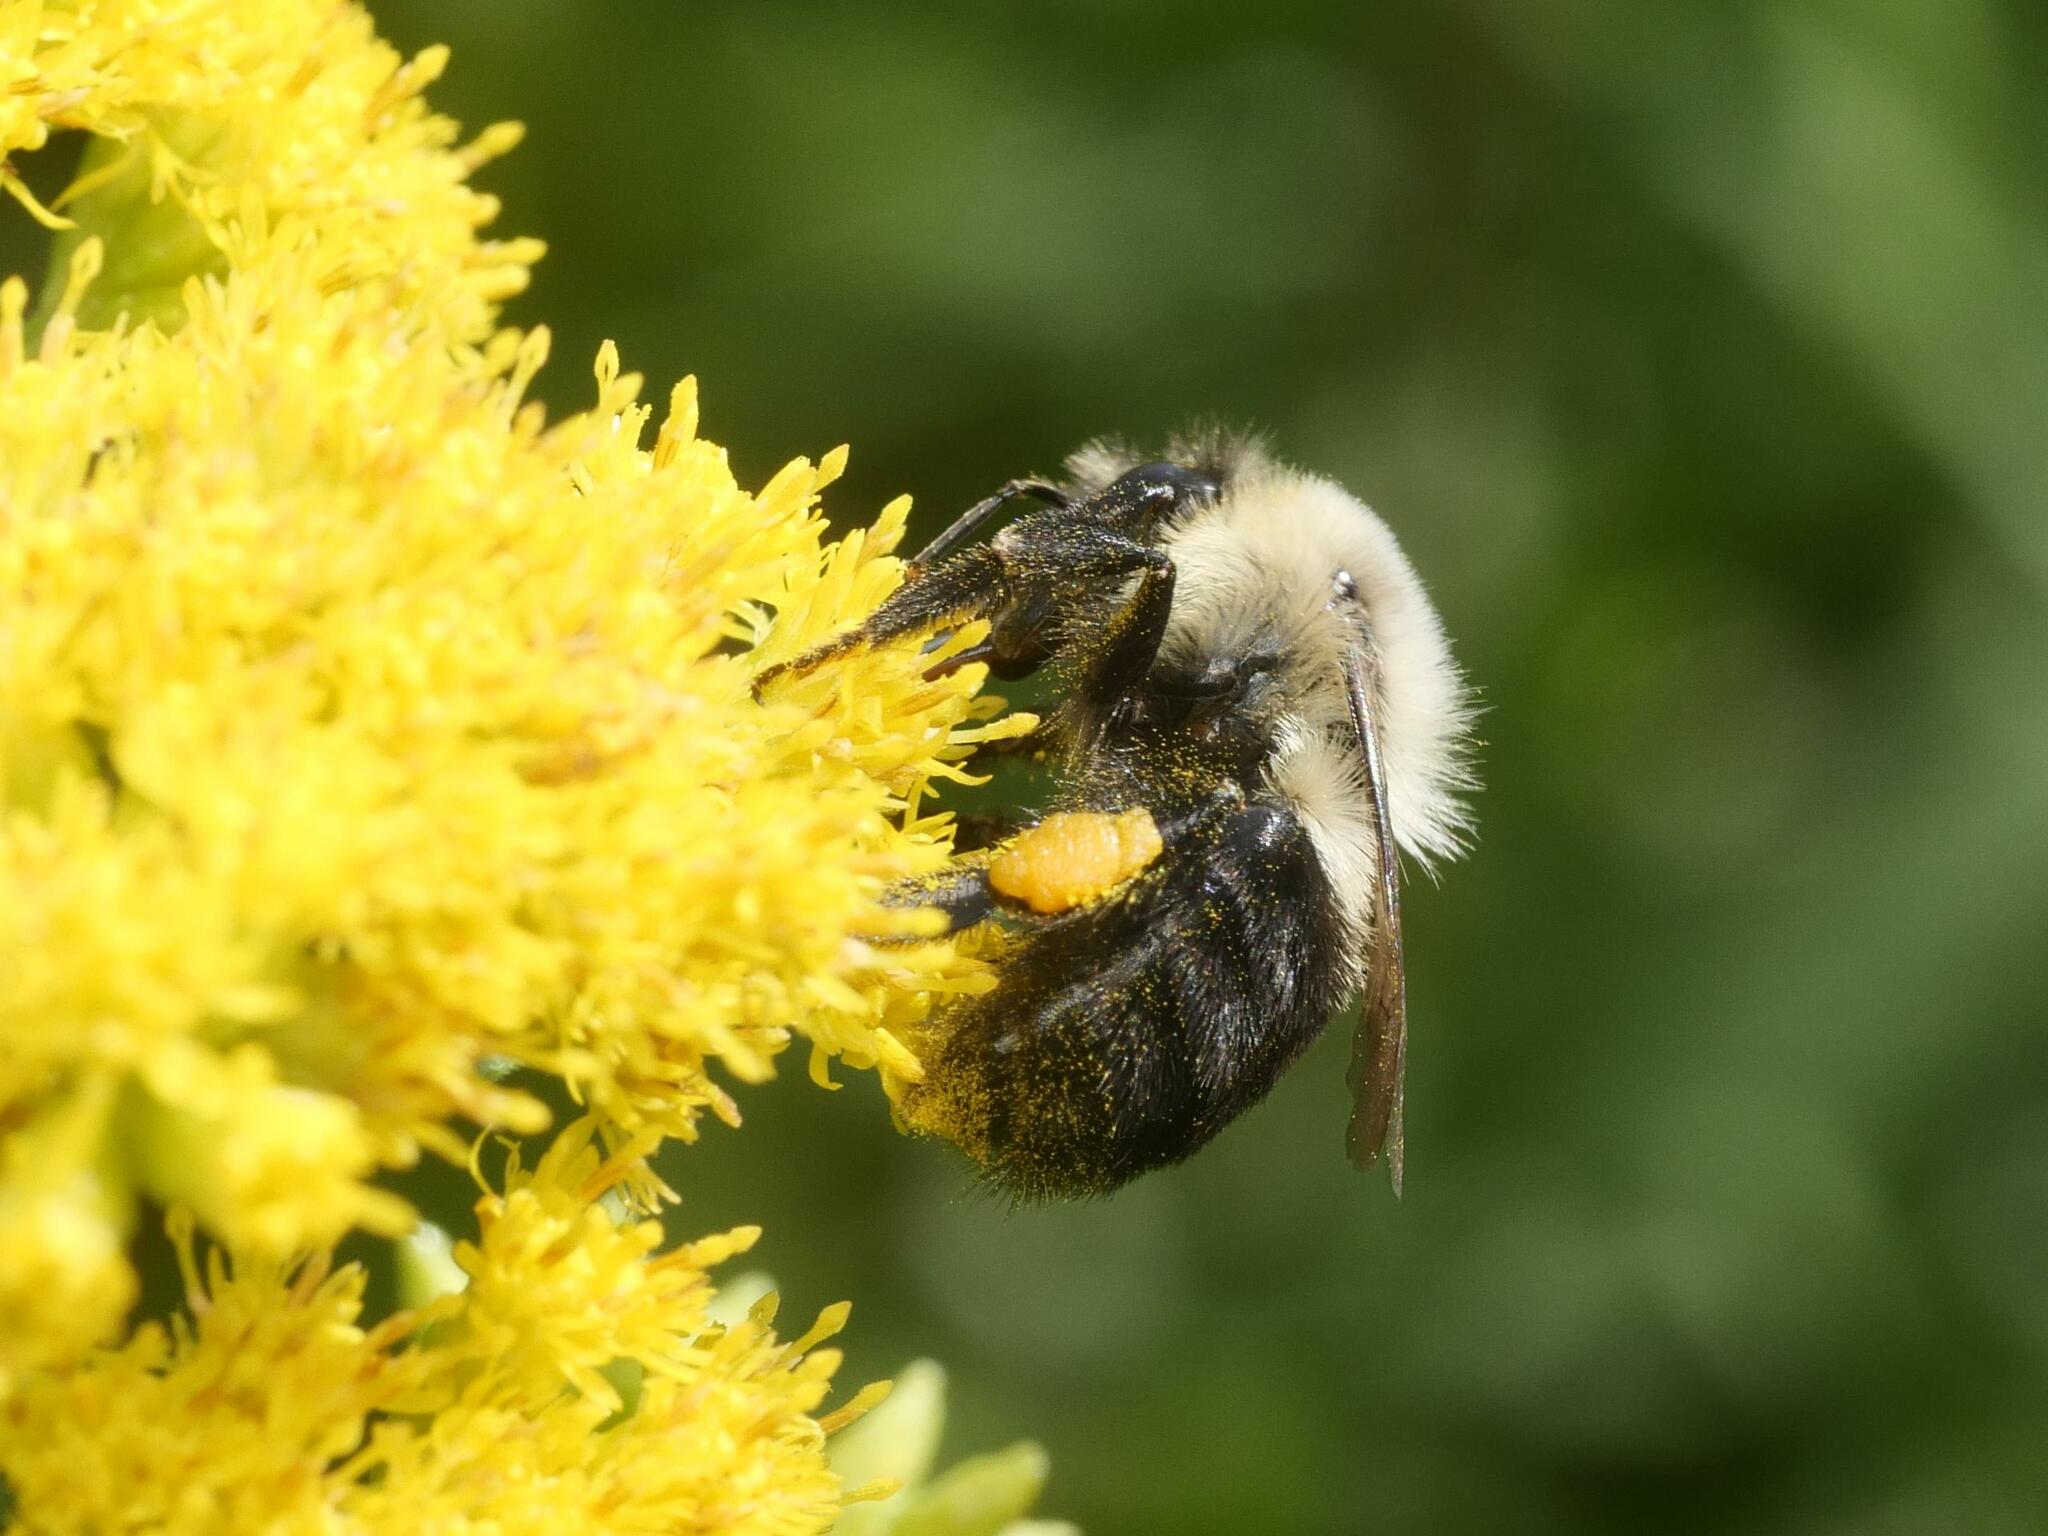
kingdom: Animalia
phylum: Arthropoda
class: Insecta
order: Hymenoptera
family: Apidae
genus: Bombus
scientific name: Bombus impatiens
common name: Common eastern bumble bee
